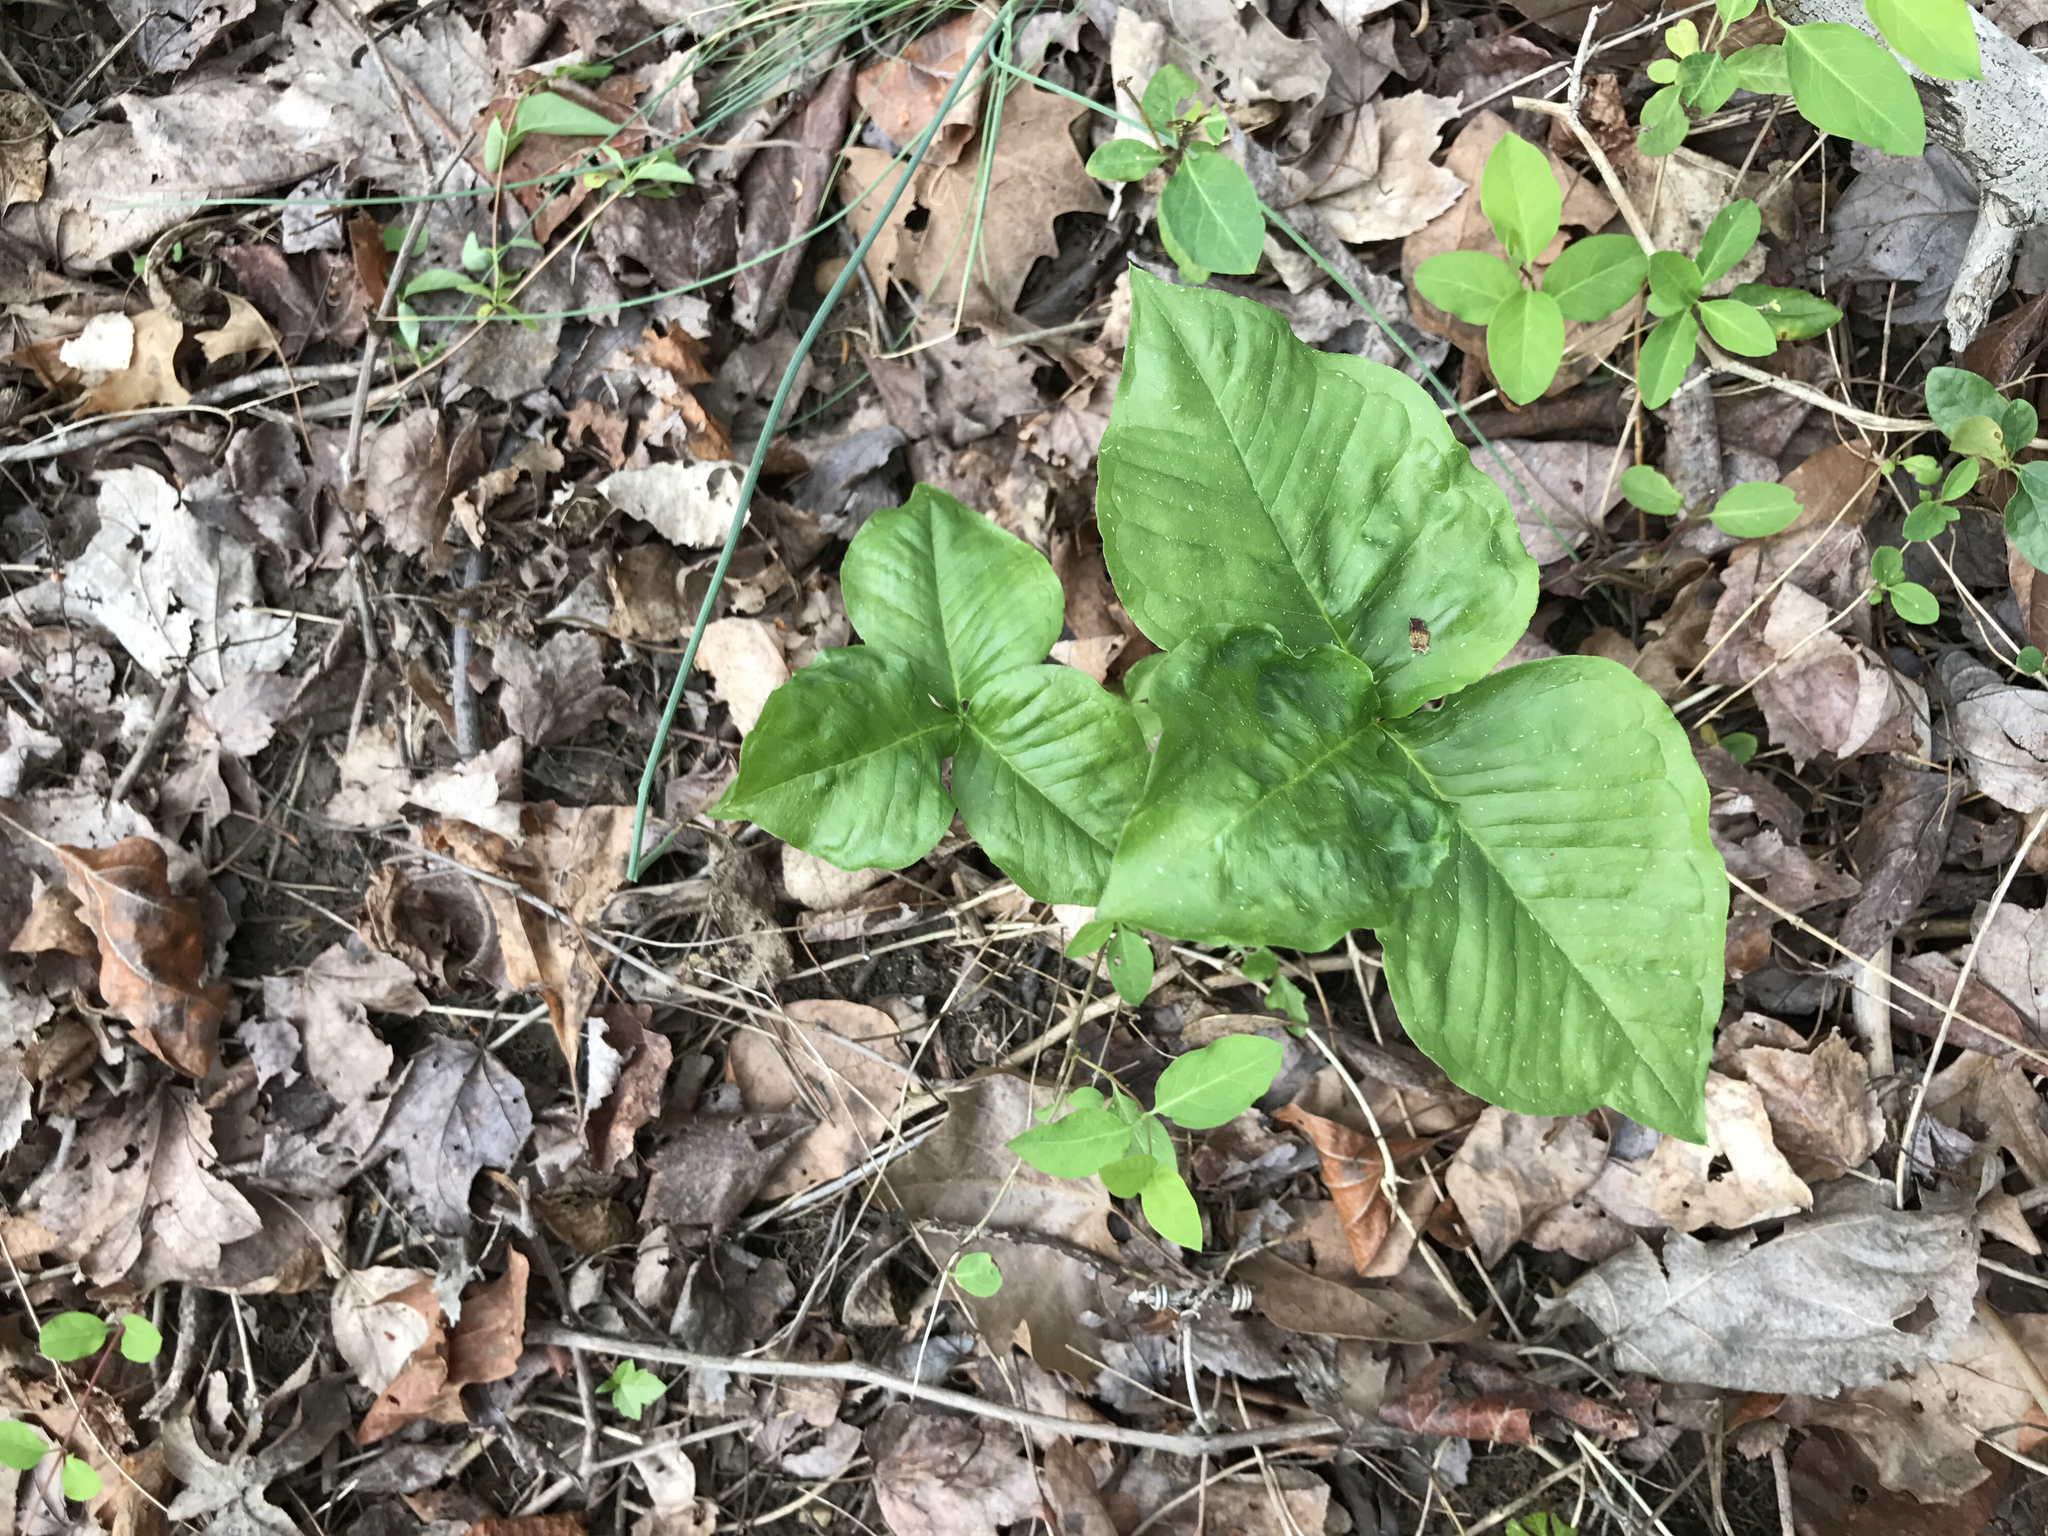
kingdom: Plantae
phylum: Tracheophyta
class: Liliopsida
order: Alismatales
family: Araceae
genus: Arisaema
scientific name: Arisaema triphyllum
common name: Jack-in-the-pulpit
